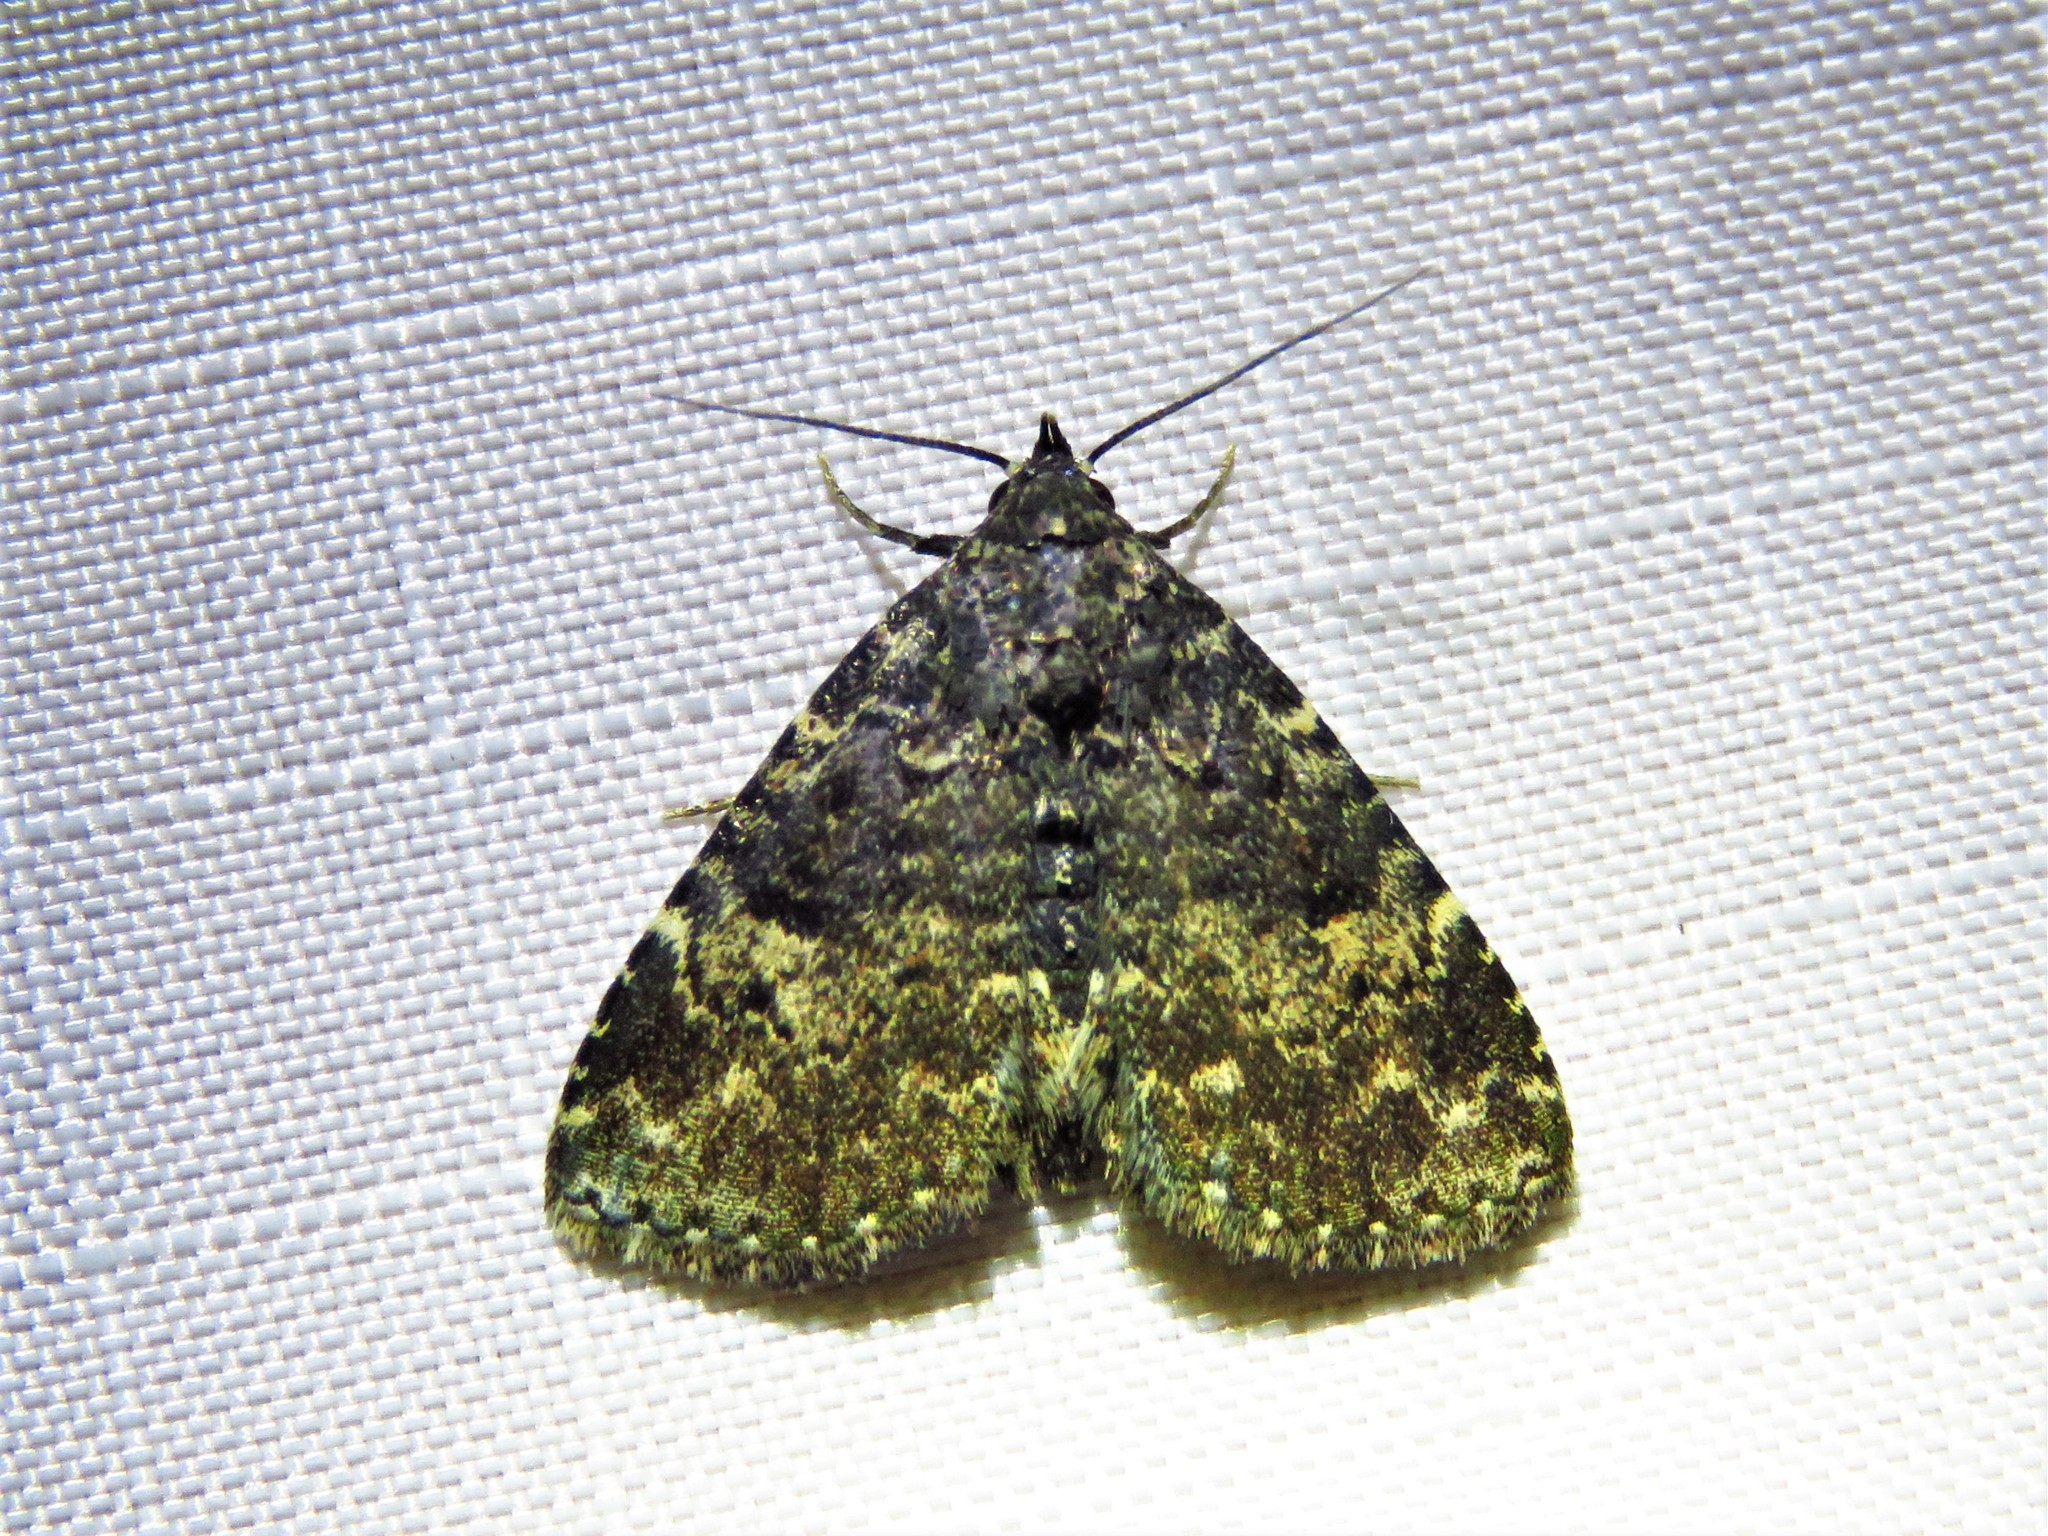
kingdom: Animalia
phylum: Arthropoda
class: Insecta
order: Lepidoptera
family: Erebidae
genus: Metalectra
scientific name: Metalectra discalis
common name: Common fungus moth
